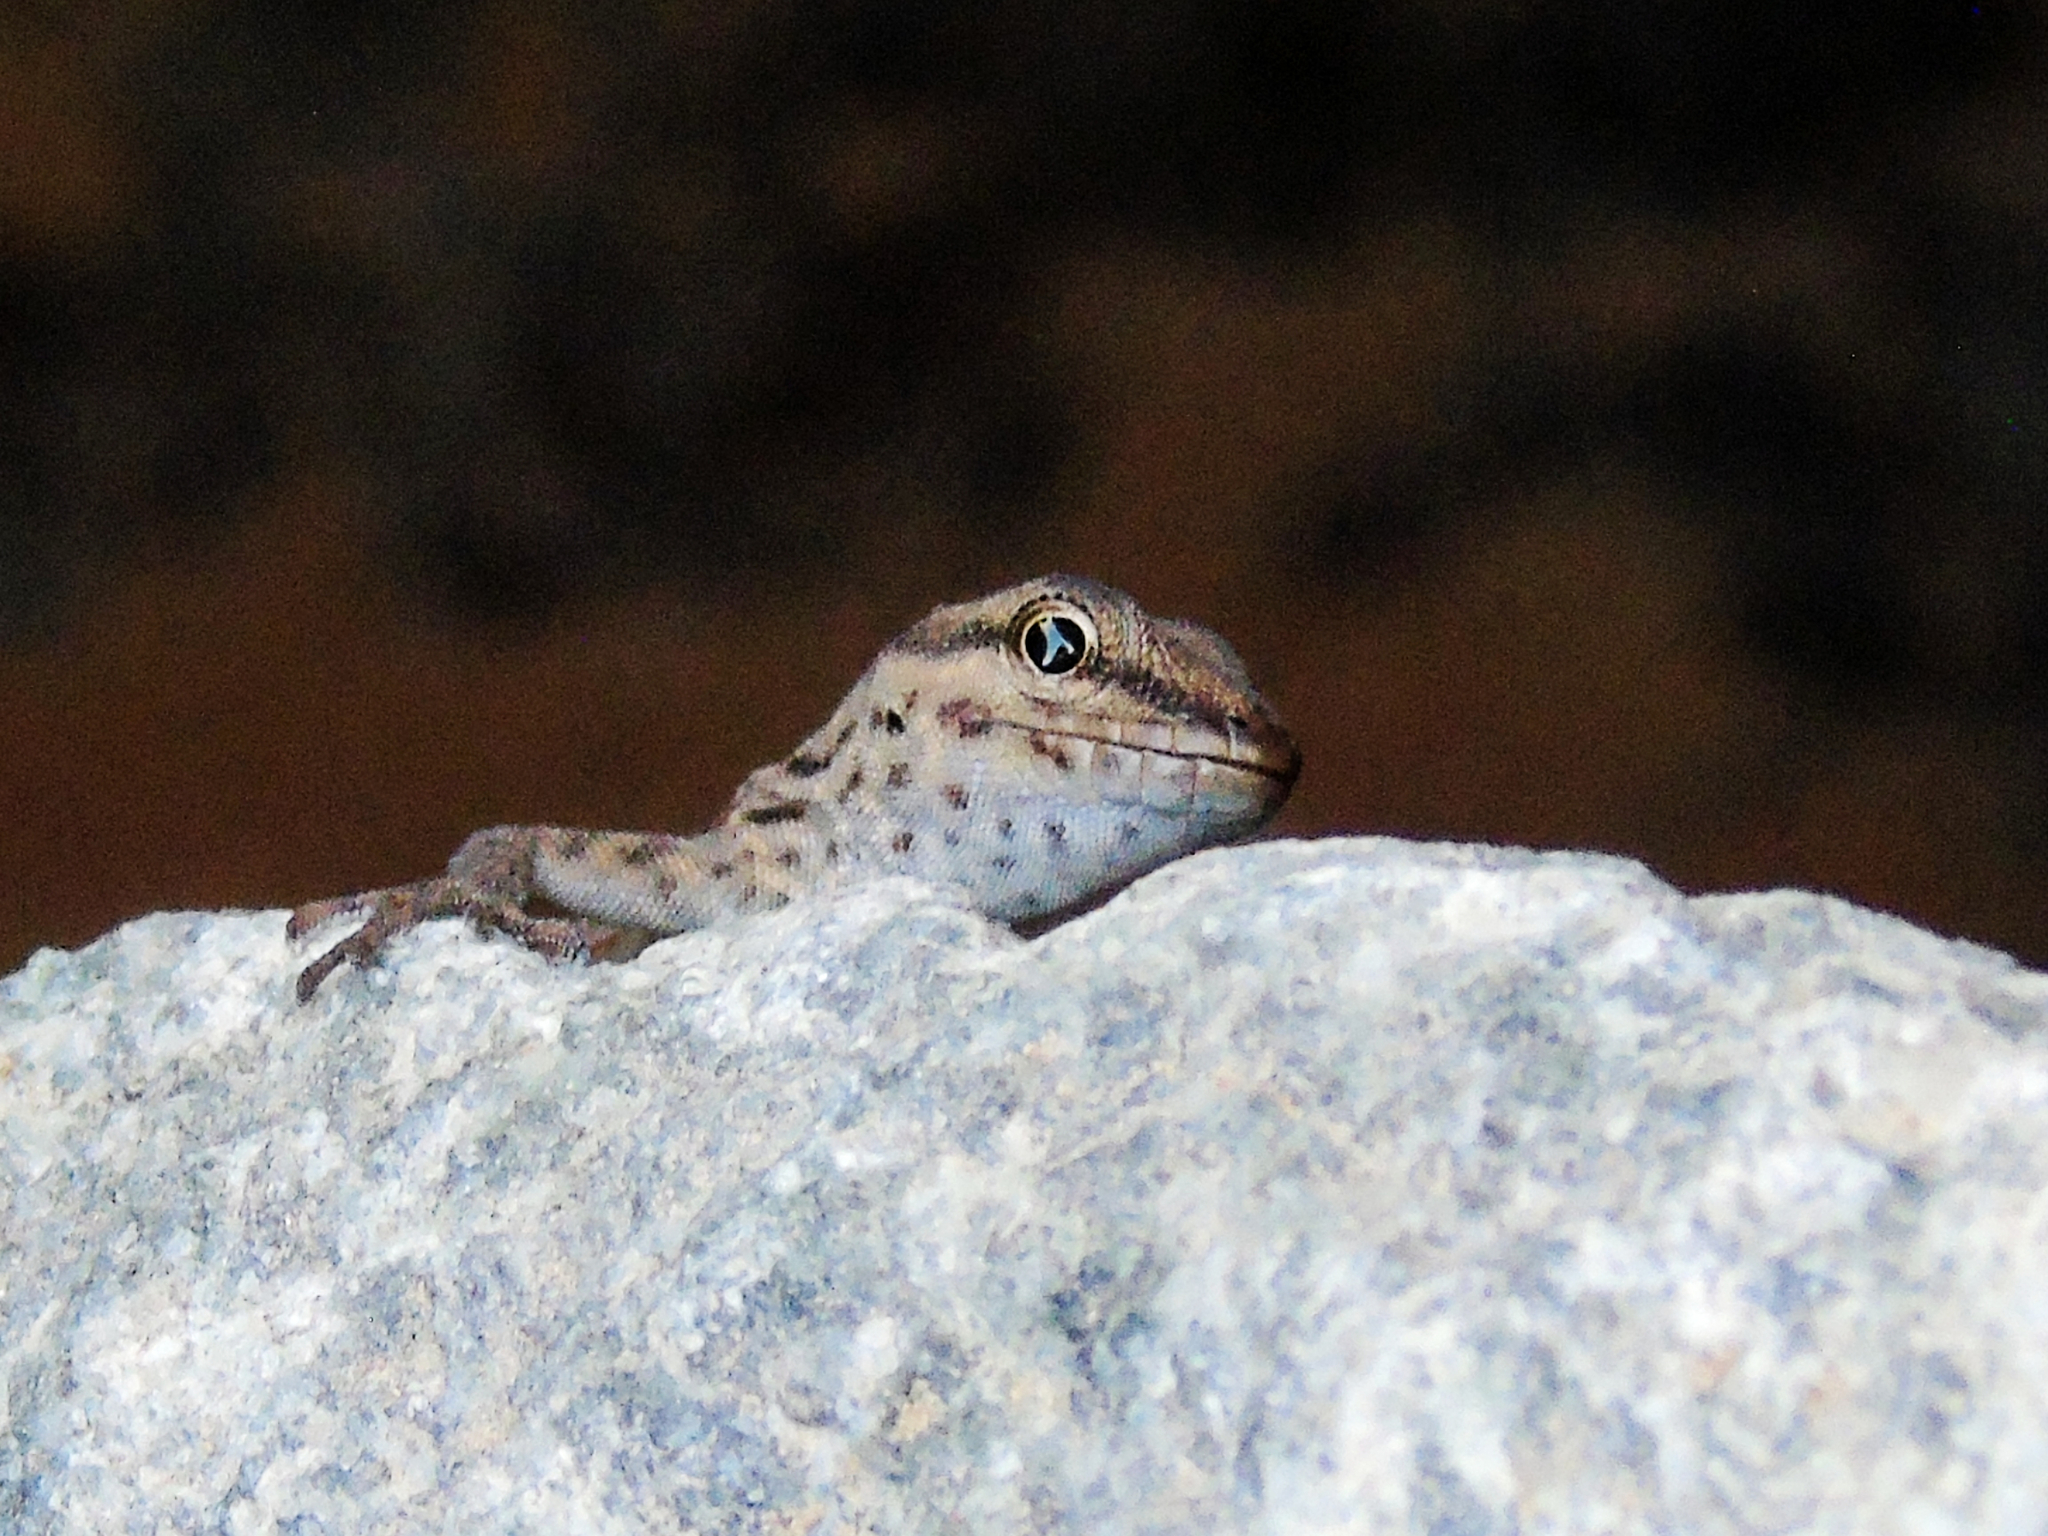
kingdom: Animalia
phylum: Chordata
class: Squamata
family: Sphaerodactylidae
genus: Pristurus
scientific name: Pristurus rupestris
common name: Blanford’s semaphore gecko
